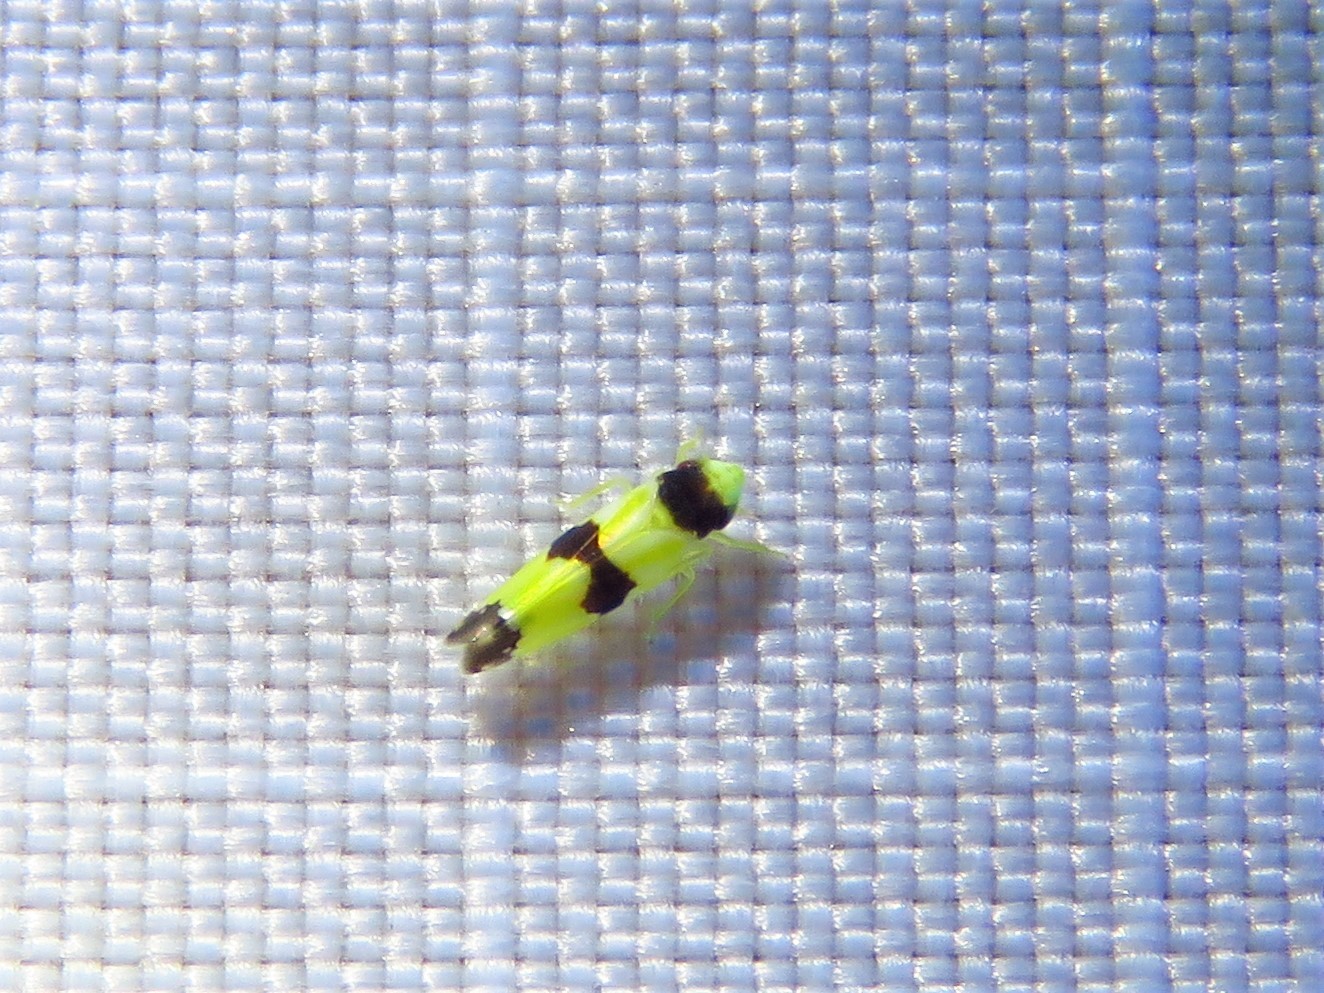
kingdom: Animalia
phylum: Arthropoda
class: Insecta
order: Hemiptera
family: Cicadellidae
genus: Erythroneura
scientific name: Erythroneura tricincta
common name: The threebanded grape leafhopper
